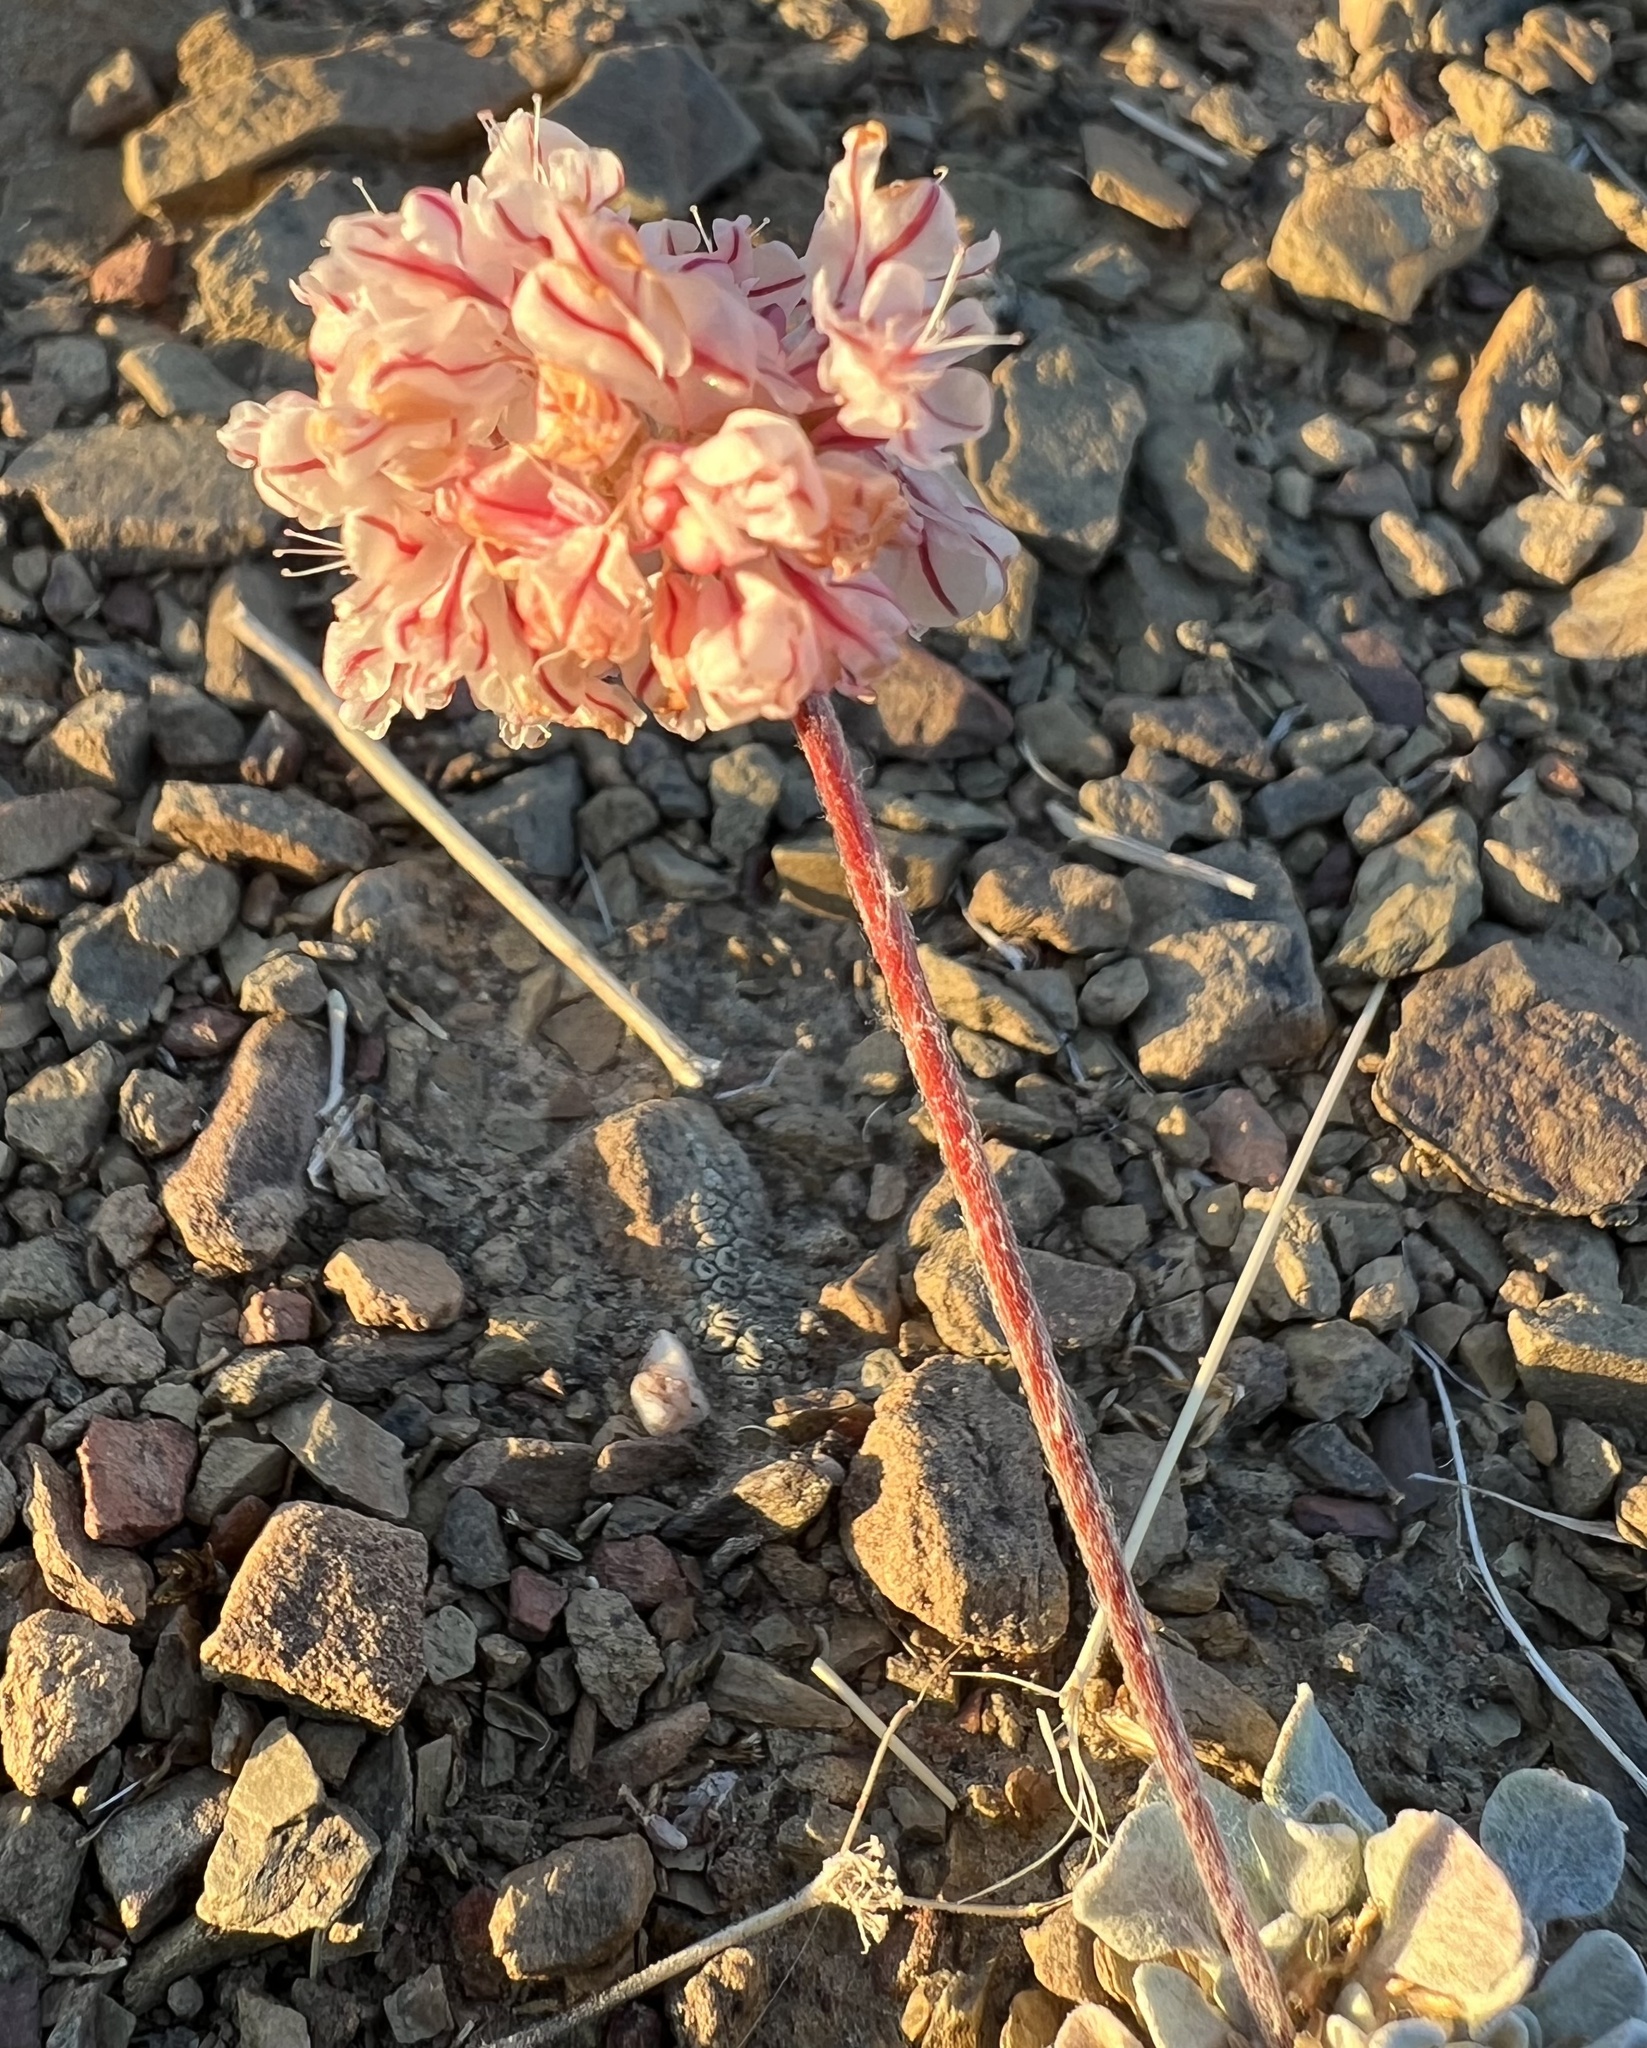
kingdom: Plantae
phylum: Tracheophyta
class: Magnoliopsida
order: Caryophyllales
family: Polygonaceae
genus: Eriogonum
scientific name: Eriogonum ovalifolium
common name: Cushion buckwheat
